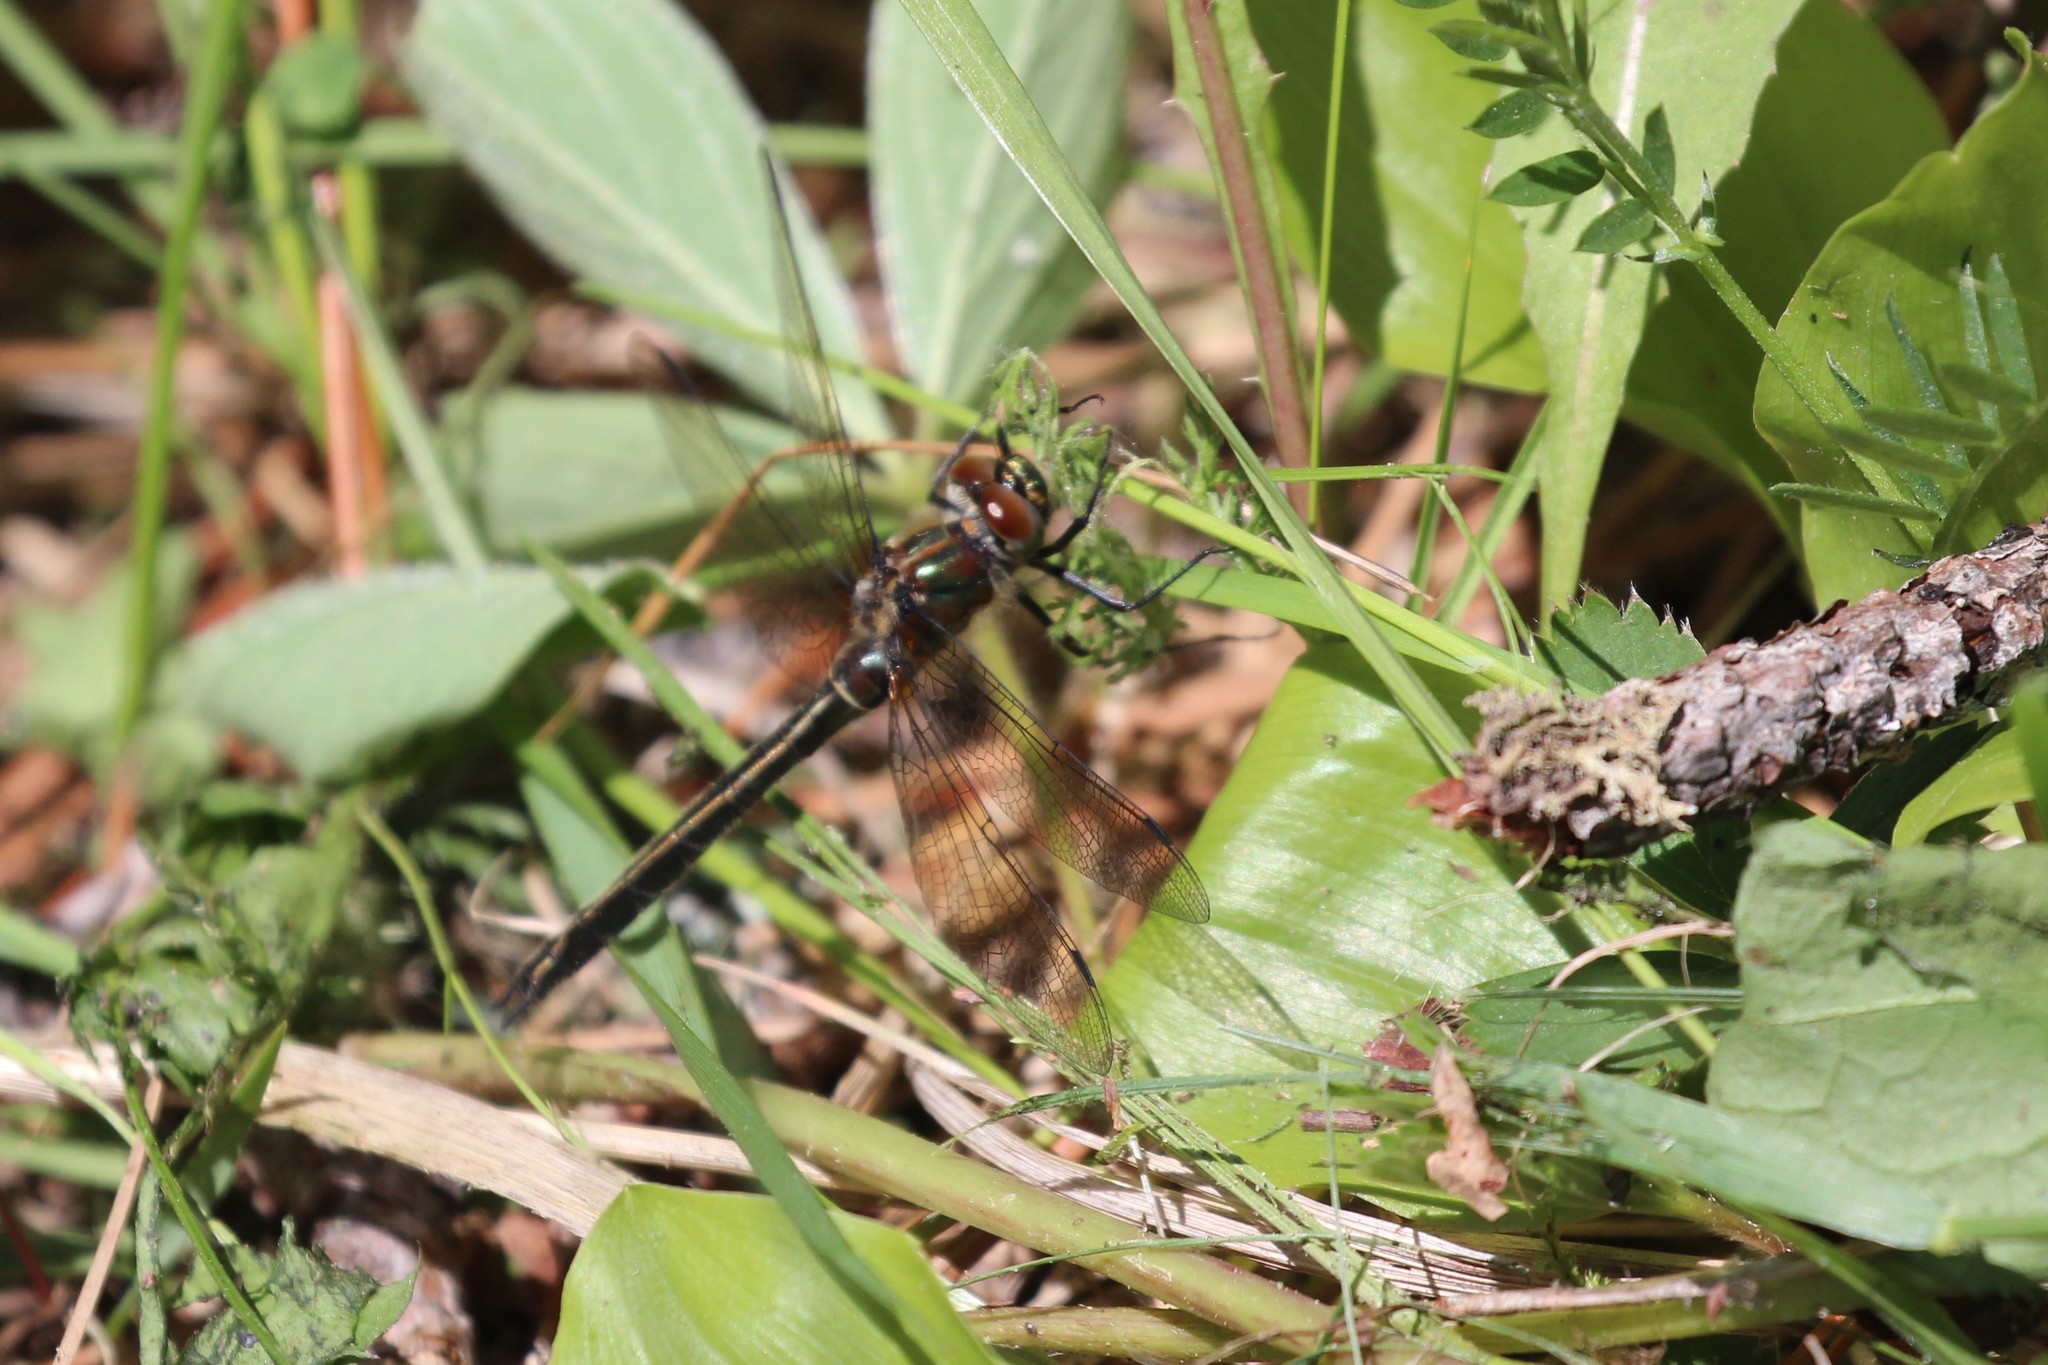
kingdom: Animalia
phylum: Arthropoda
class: Insecta
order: Odonata
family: Corduliidae
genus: Cordulia
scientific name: Cordulia shurtleffii
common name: American emerald
